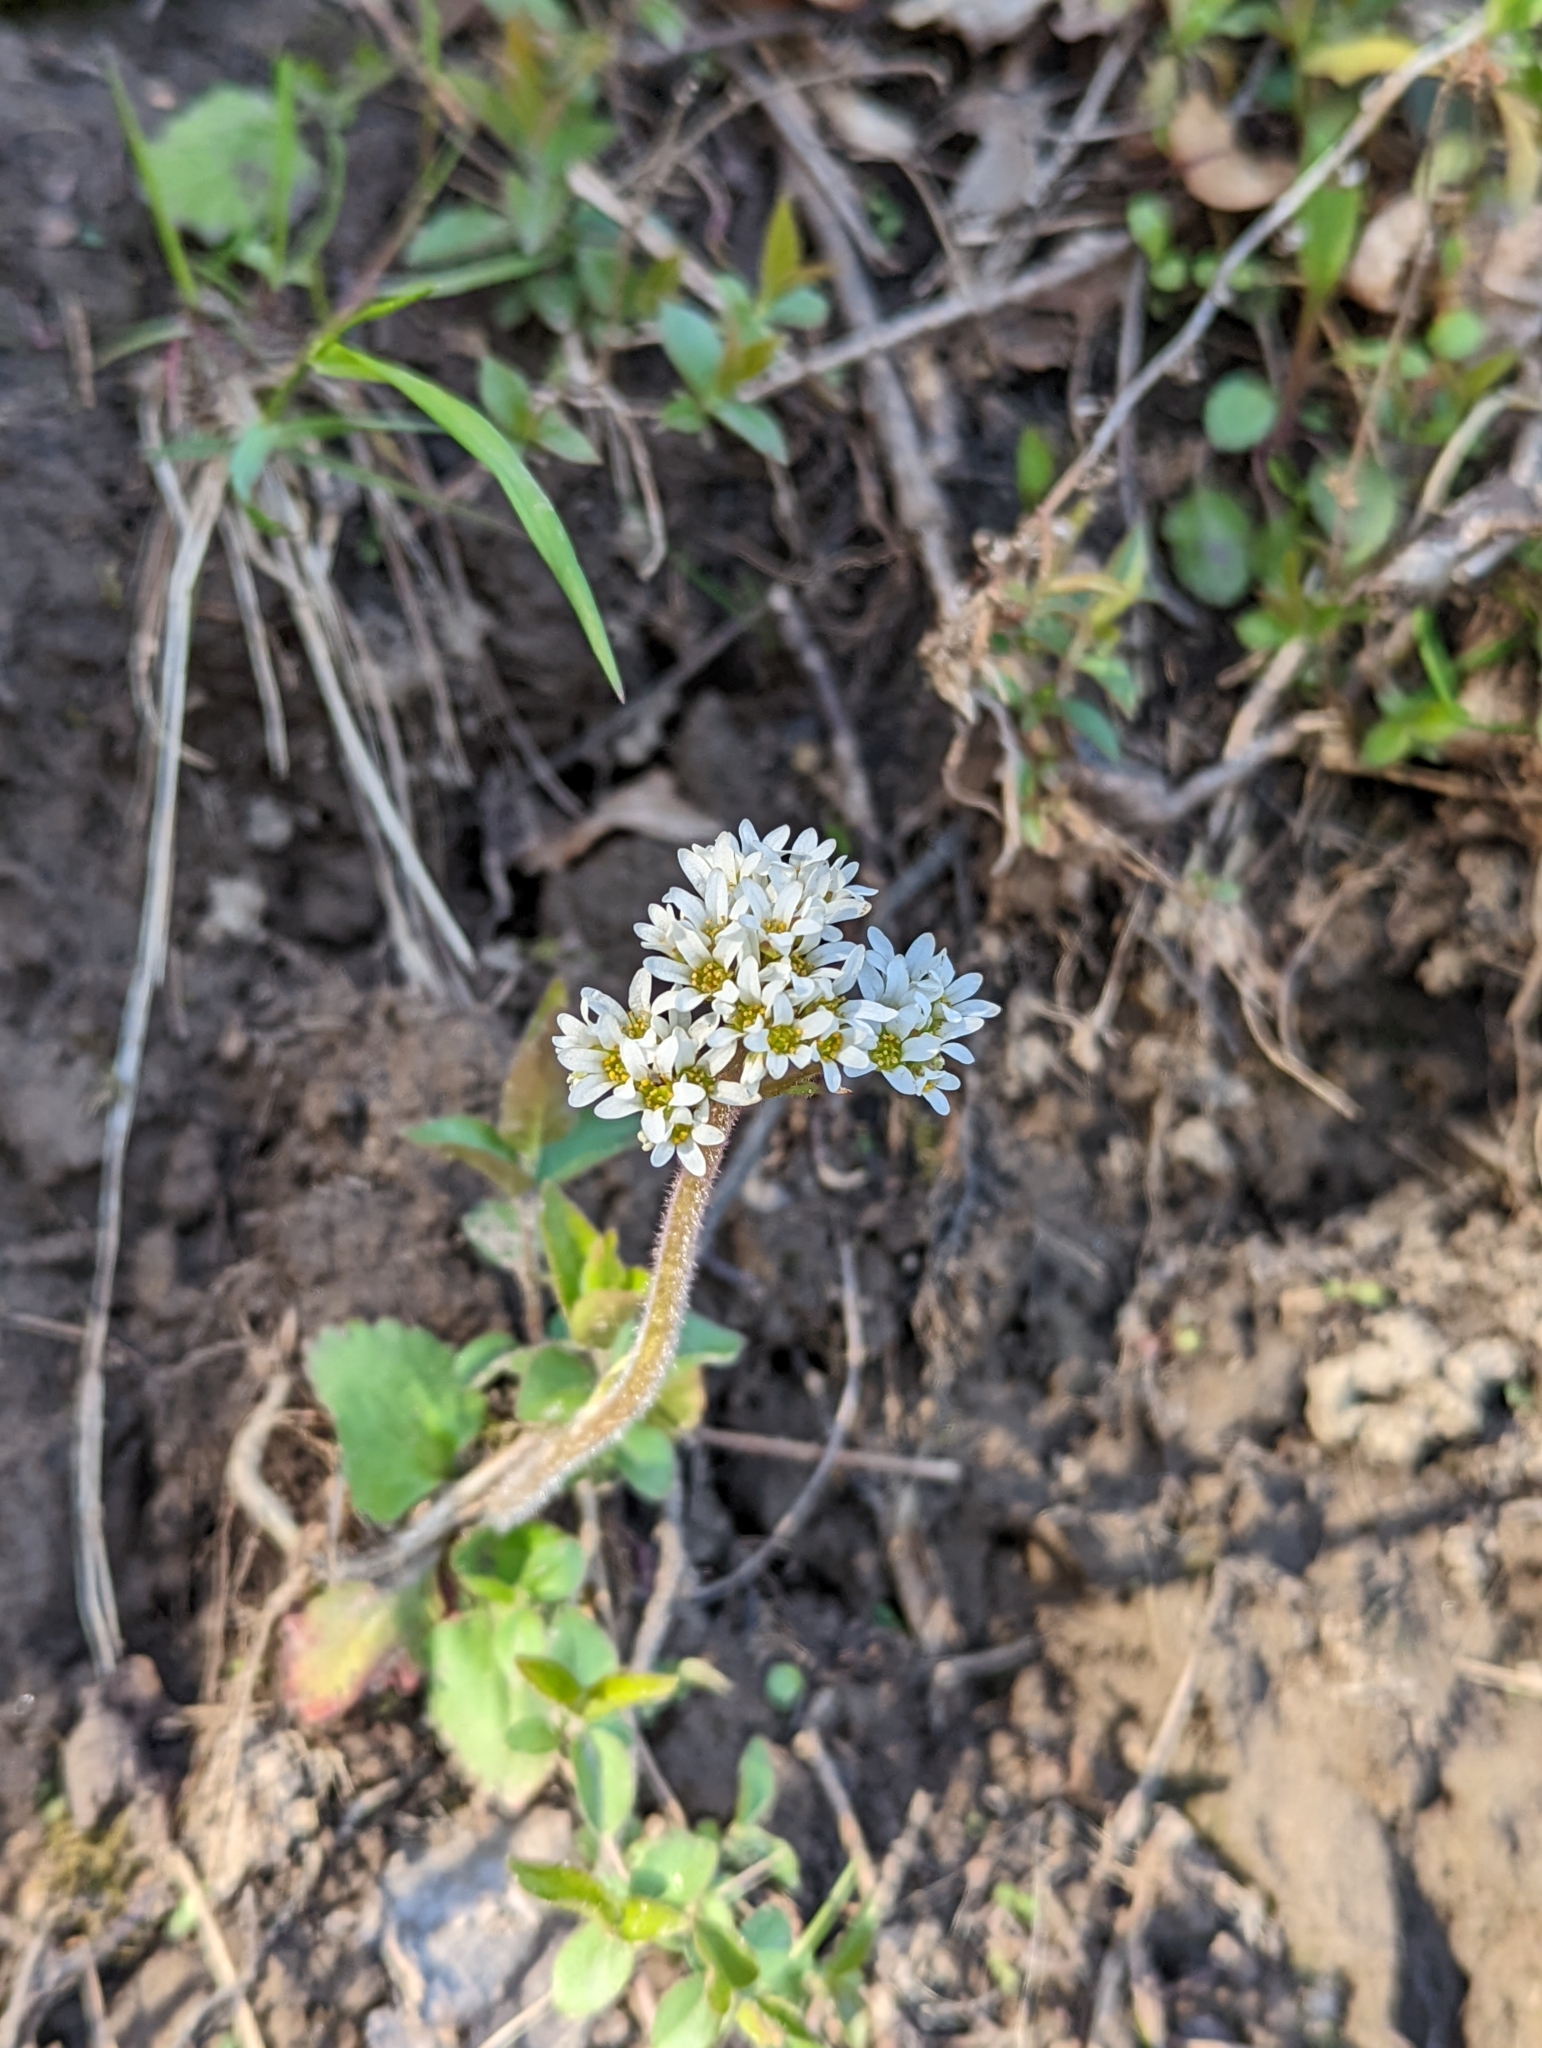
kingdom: Plantae
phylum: Tracheophyta
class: Magnoliopsida
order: Saxifragales
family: Saxifragaceae
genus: Micranthes
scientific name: Micranthes virginiensis
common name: Early saxifrage
